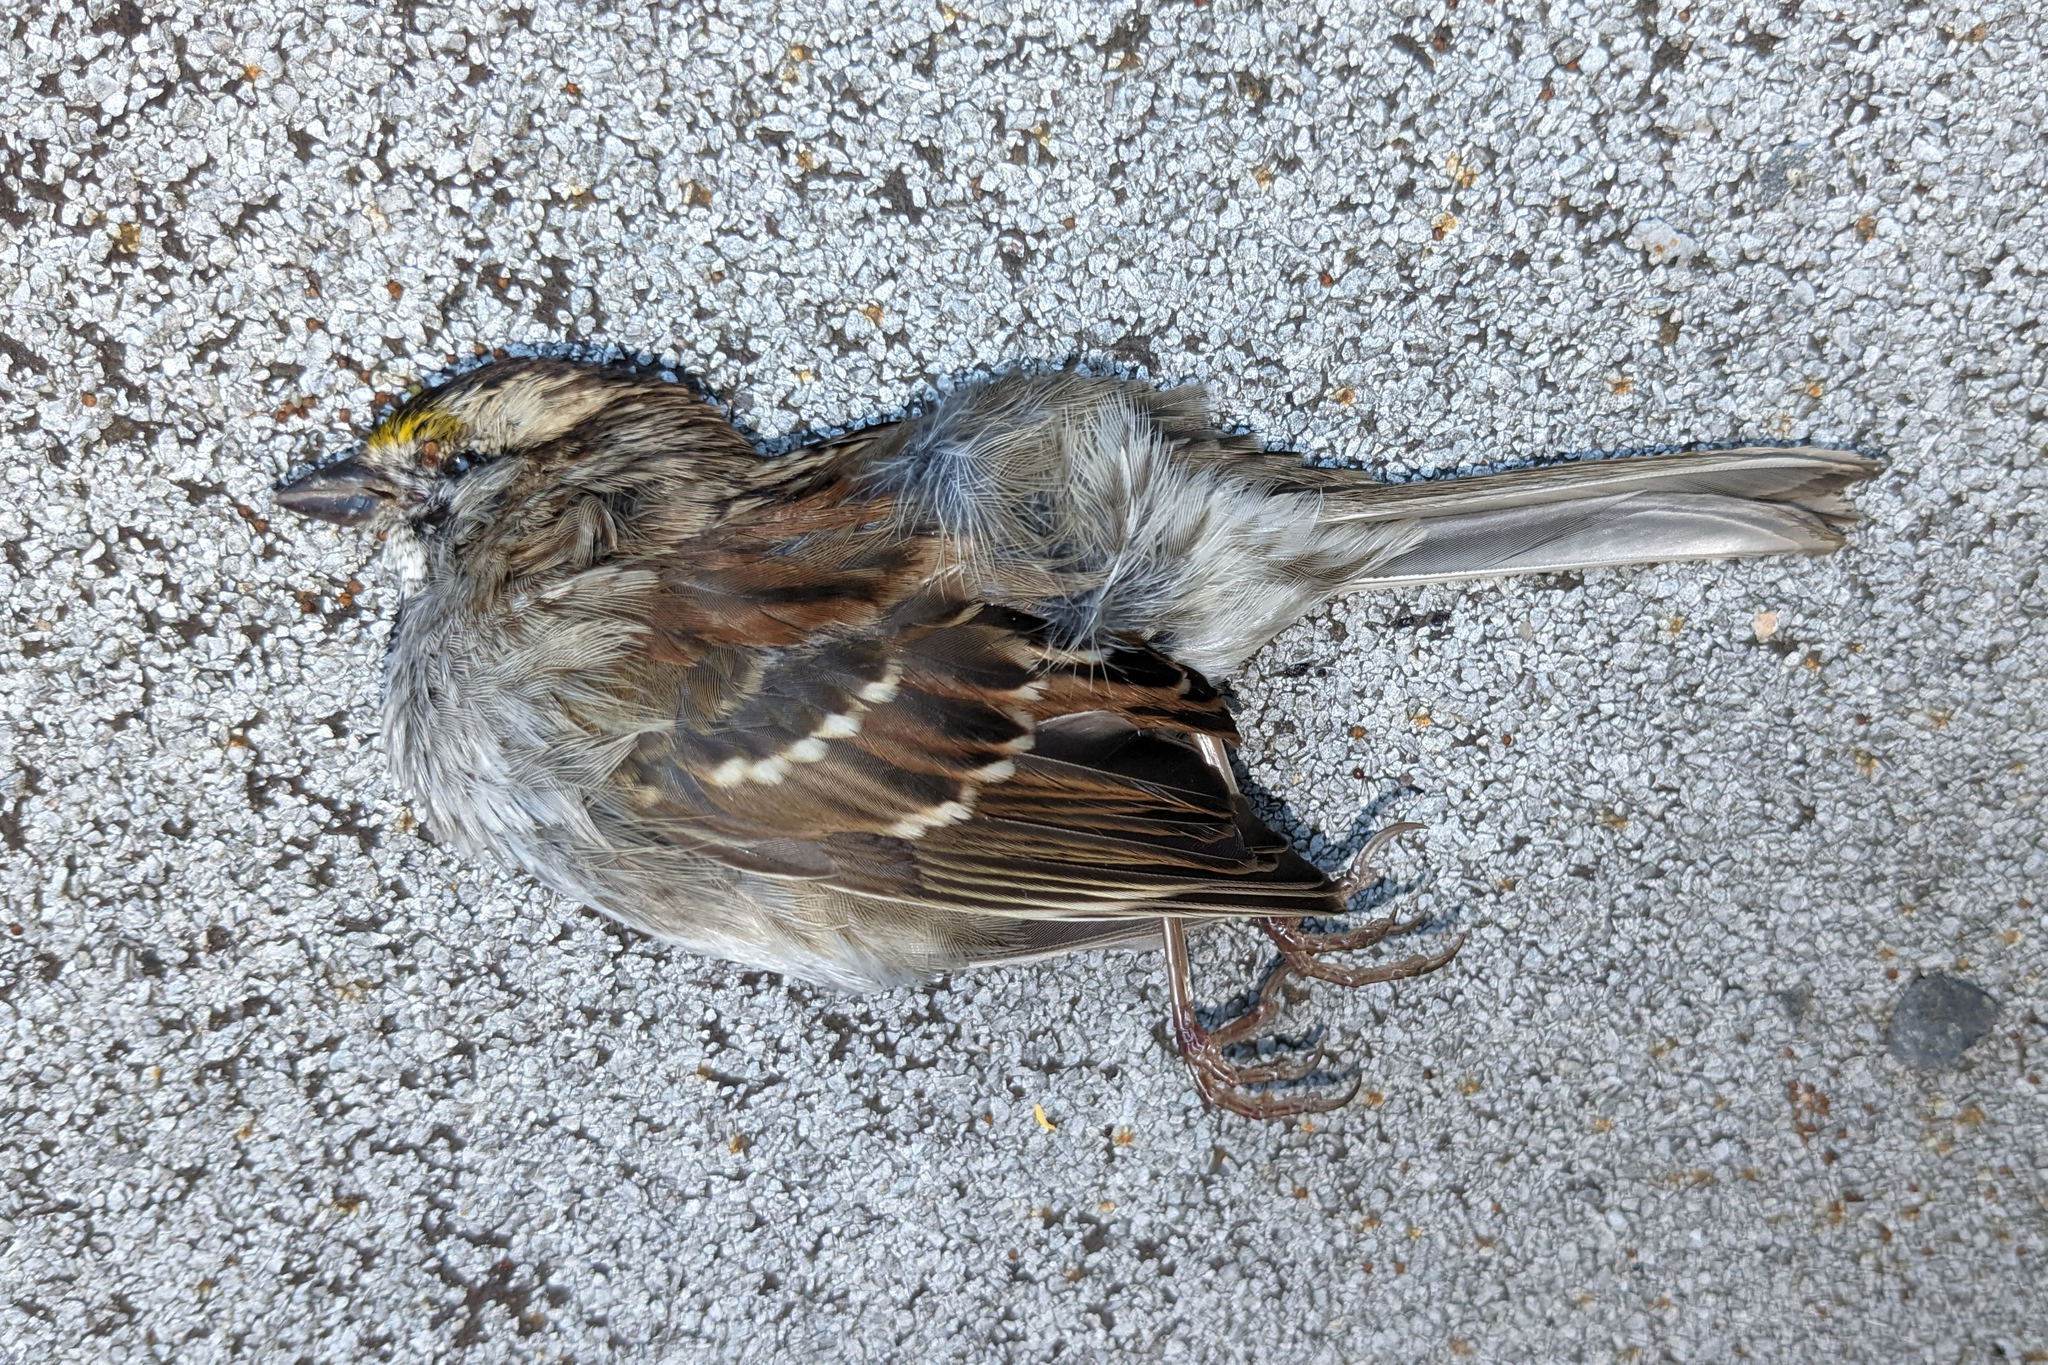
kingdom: Animalia
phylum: Chordata
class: Aves
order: Passeriformes
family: Passerellidae
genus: Zonotrichia
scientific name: Zonotrichia albicollis
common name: White-throated sparrow
